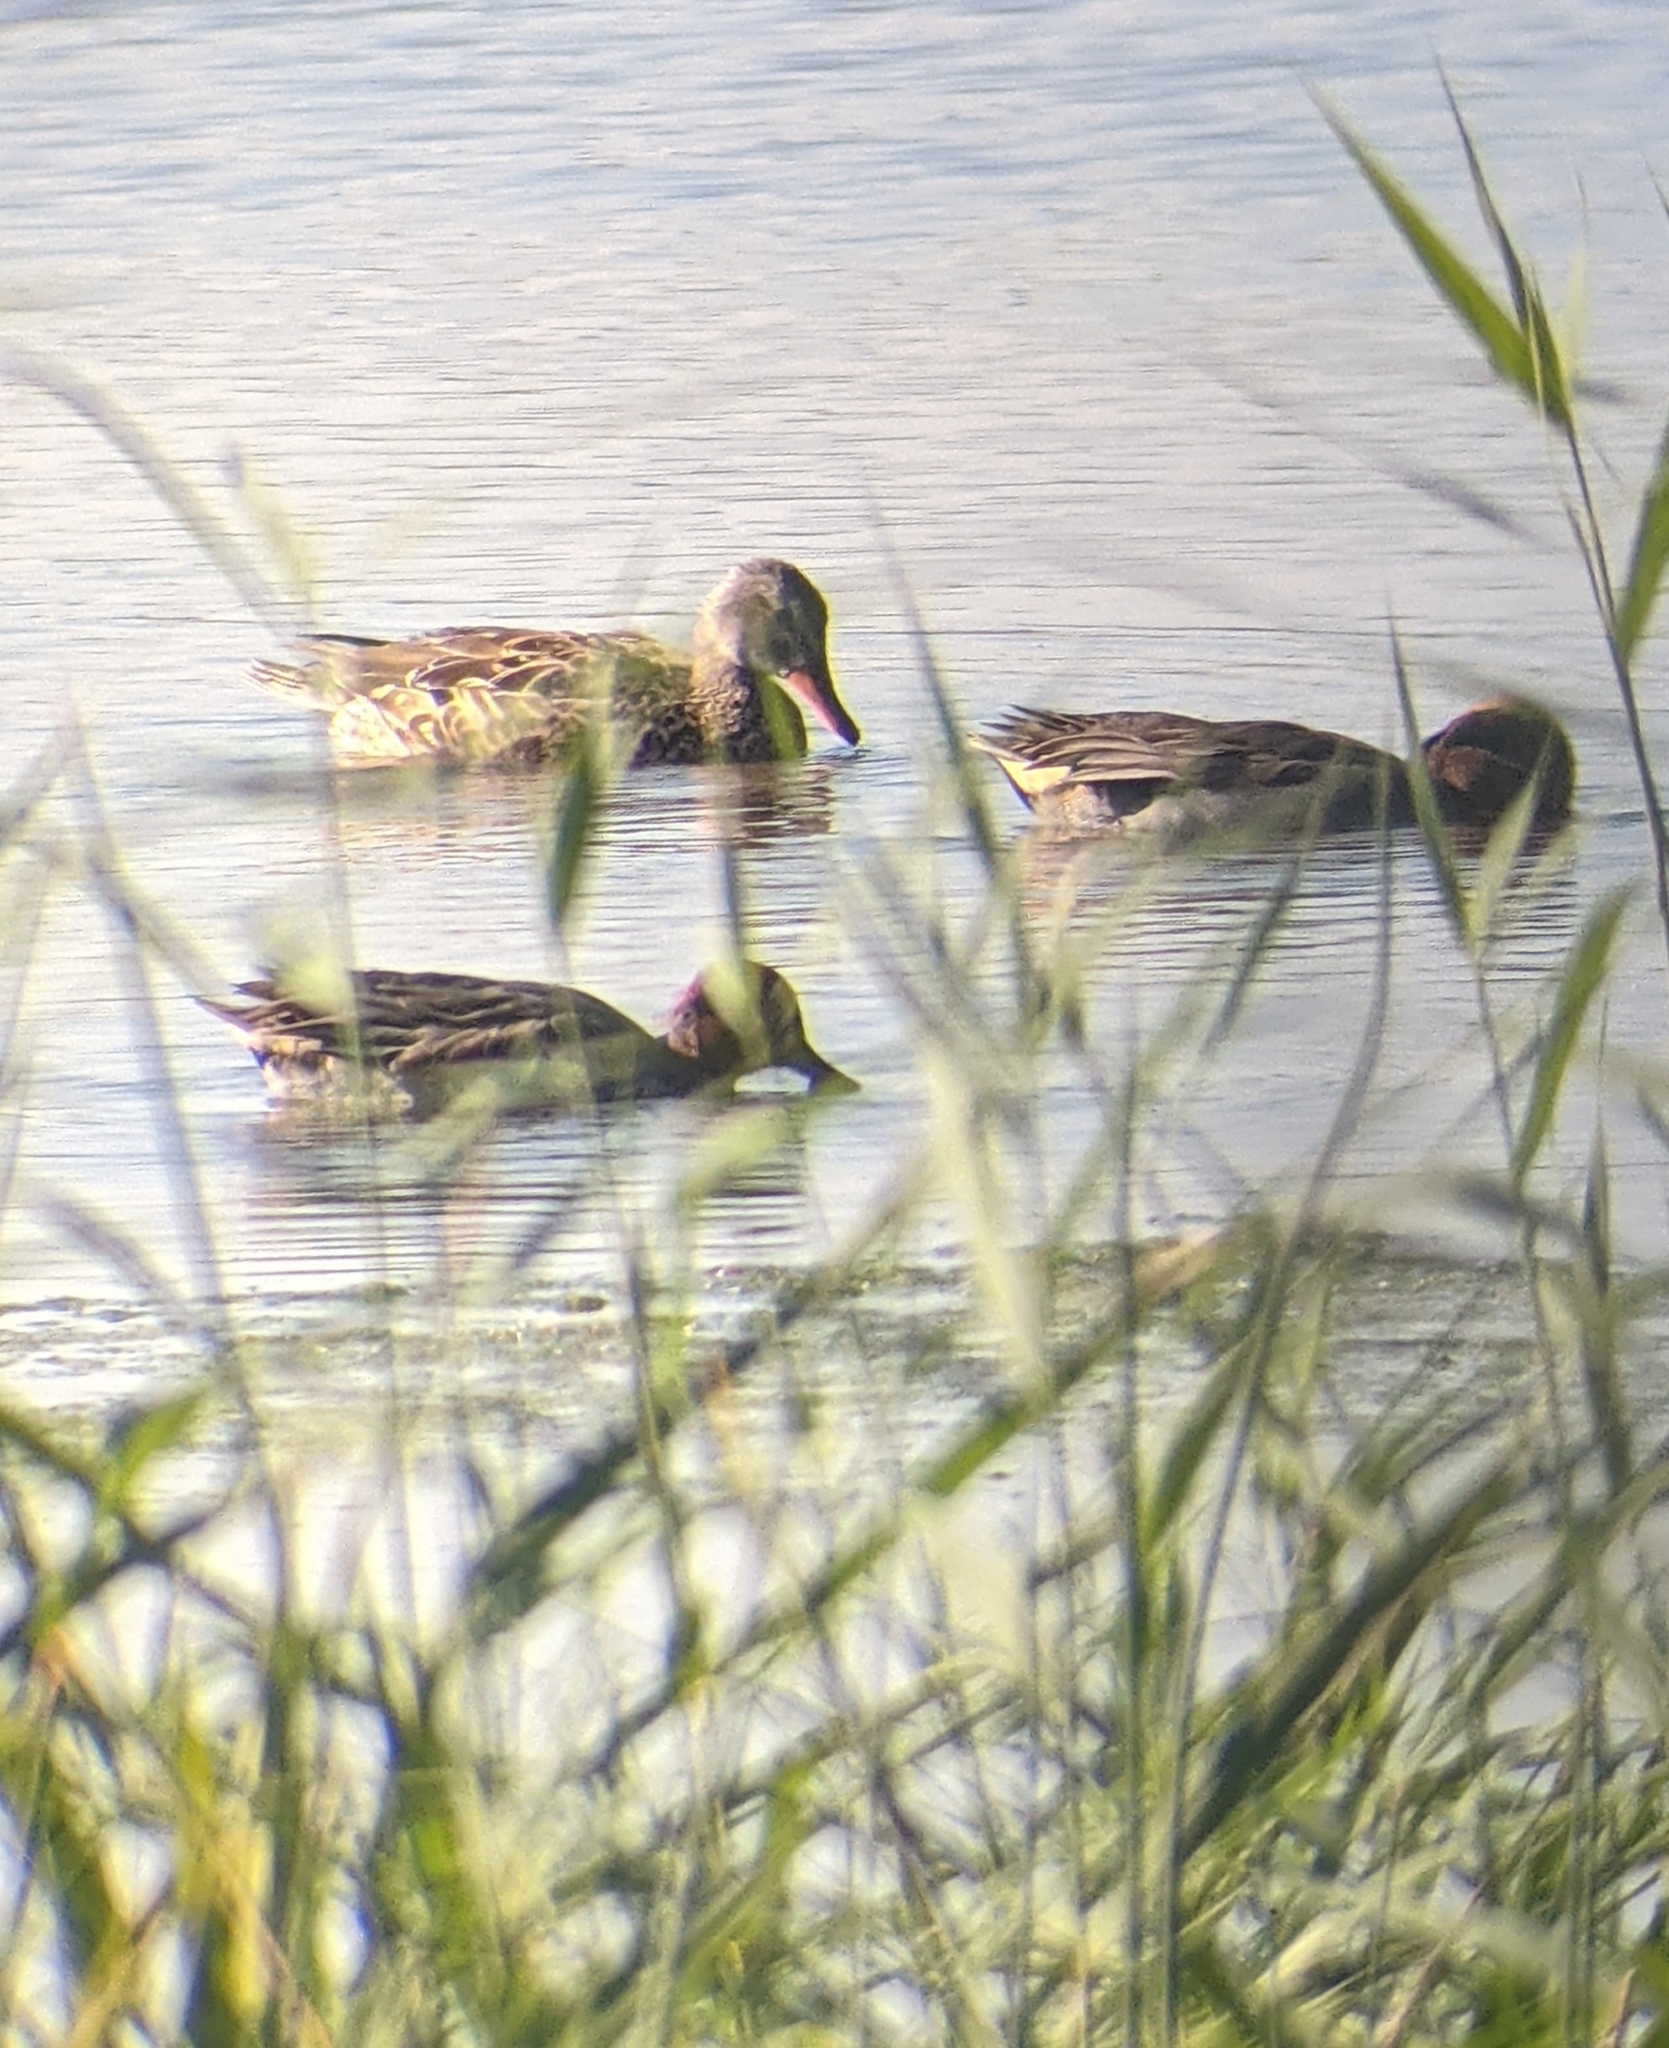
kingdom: Animalia
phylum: Chordata
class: Aves
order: Anseriformes
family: Anatidae
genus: Anas
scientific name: Anas crecca
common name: Eurasian teal
